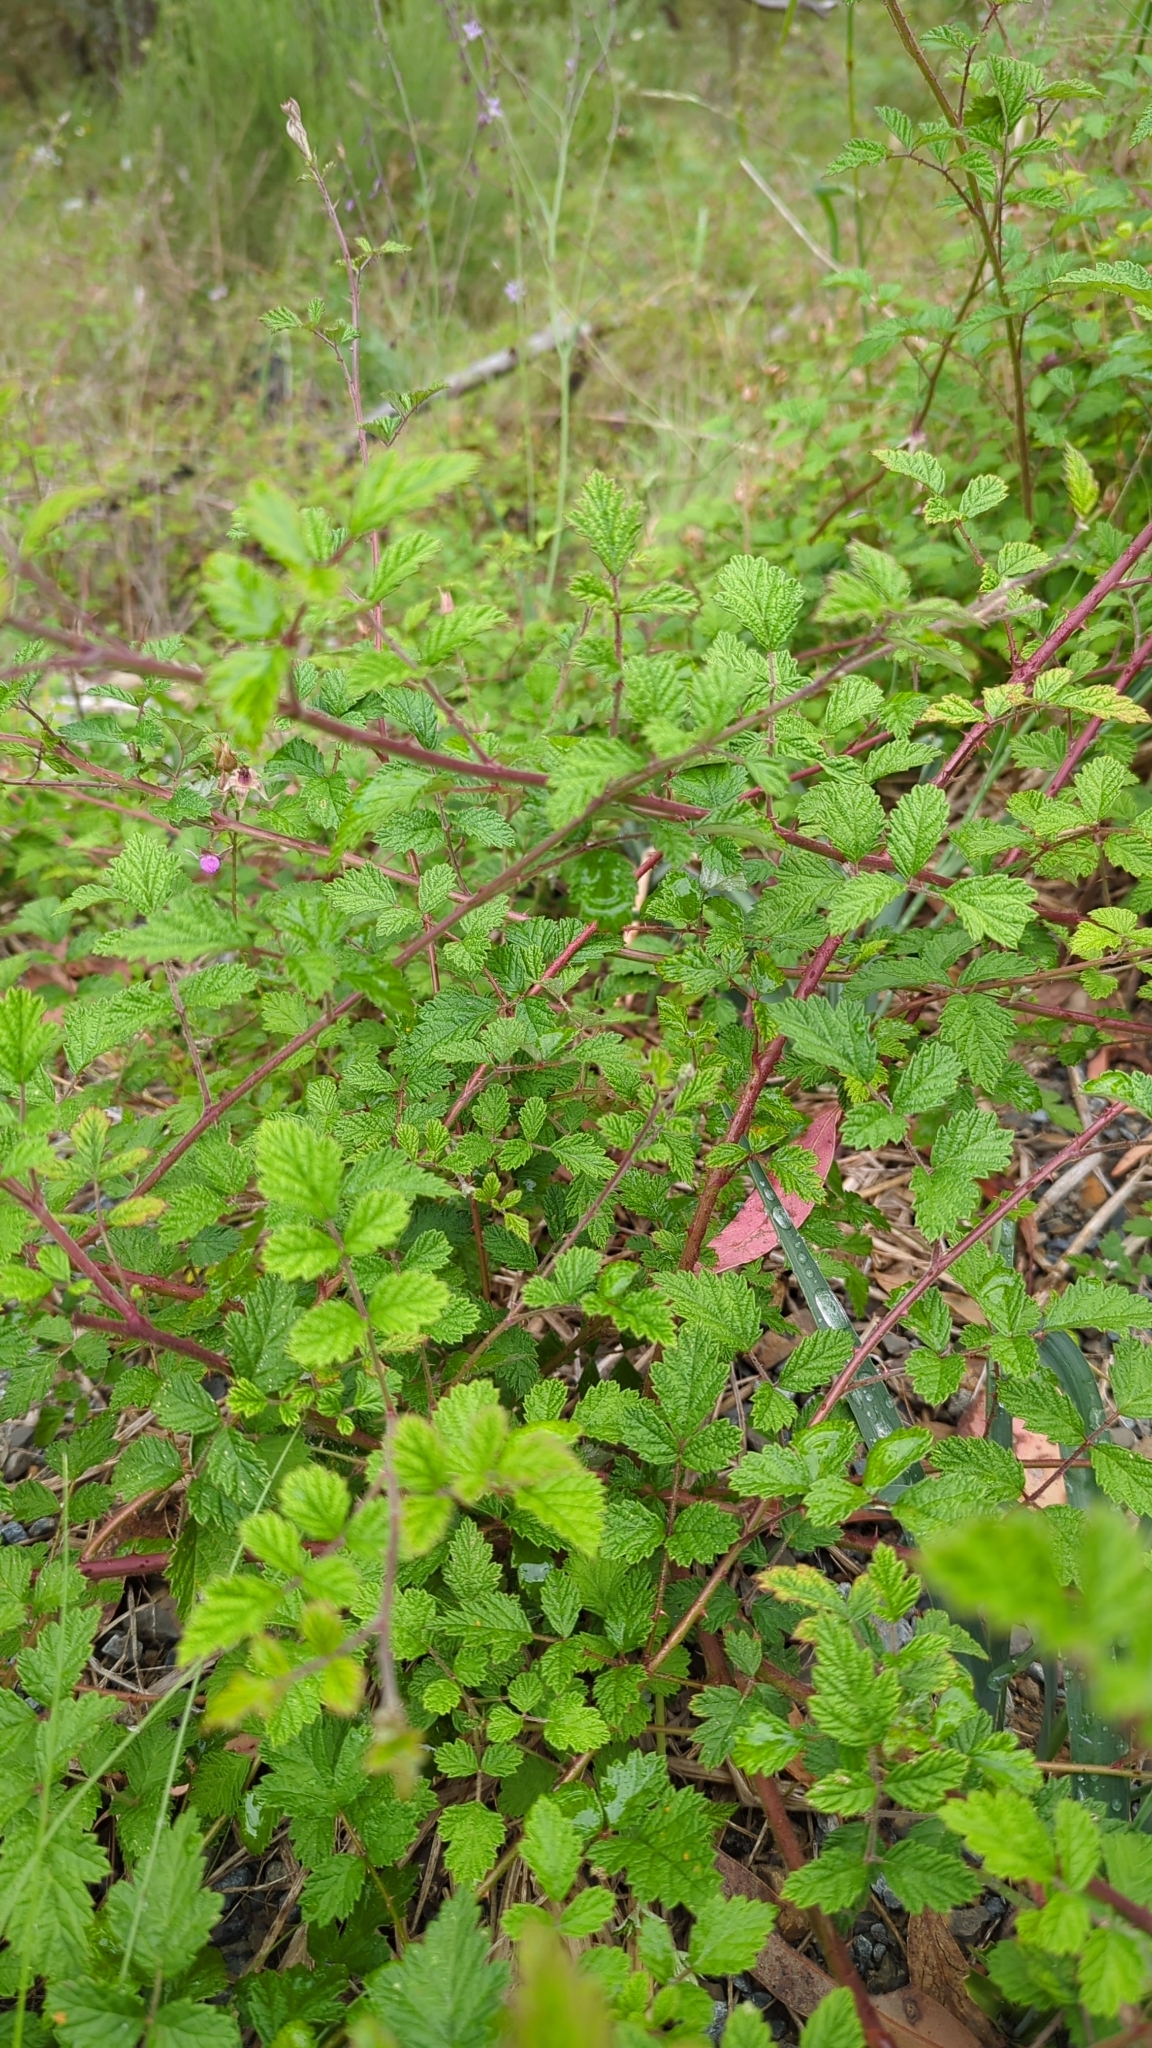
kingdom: Plantae
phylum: Tracheophyta
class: Magnoliopsida
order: Rosales
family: Rosaceae
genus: Rubus
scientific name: Rubus parvifolius
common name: Threeleaf blackberry
